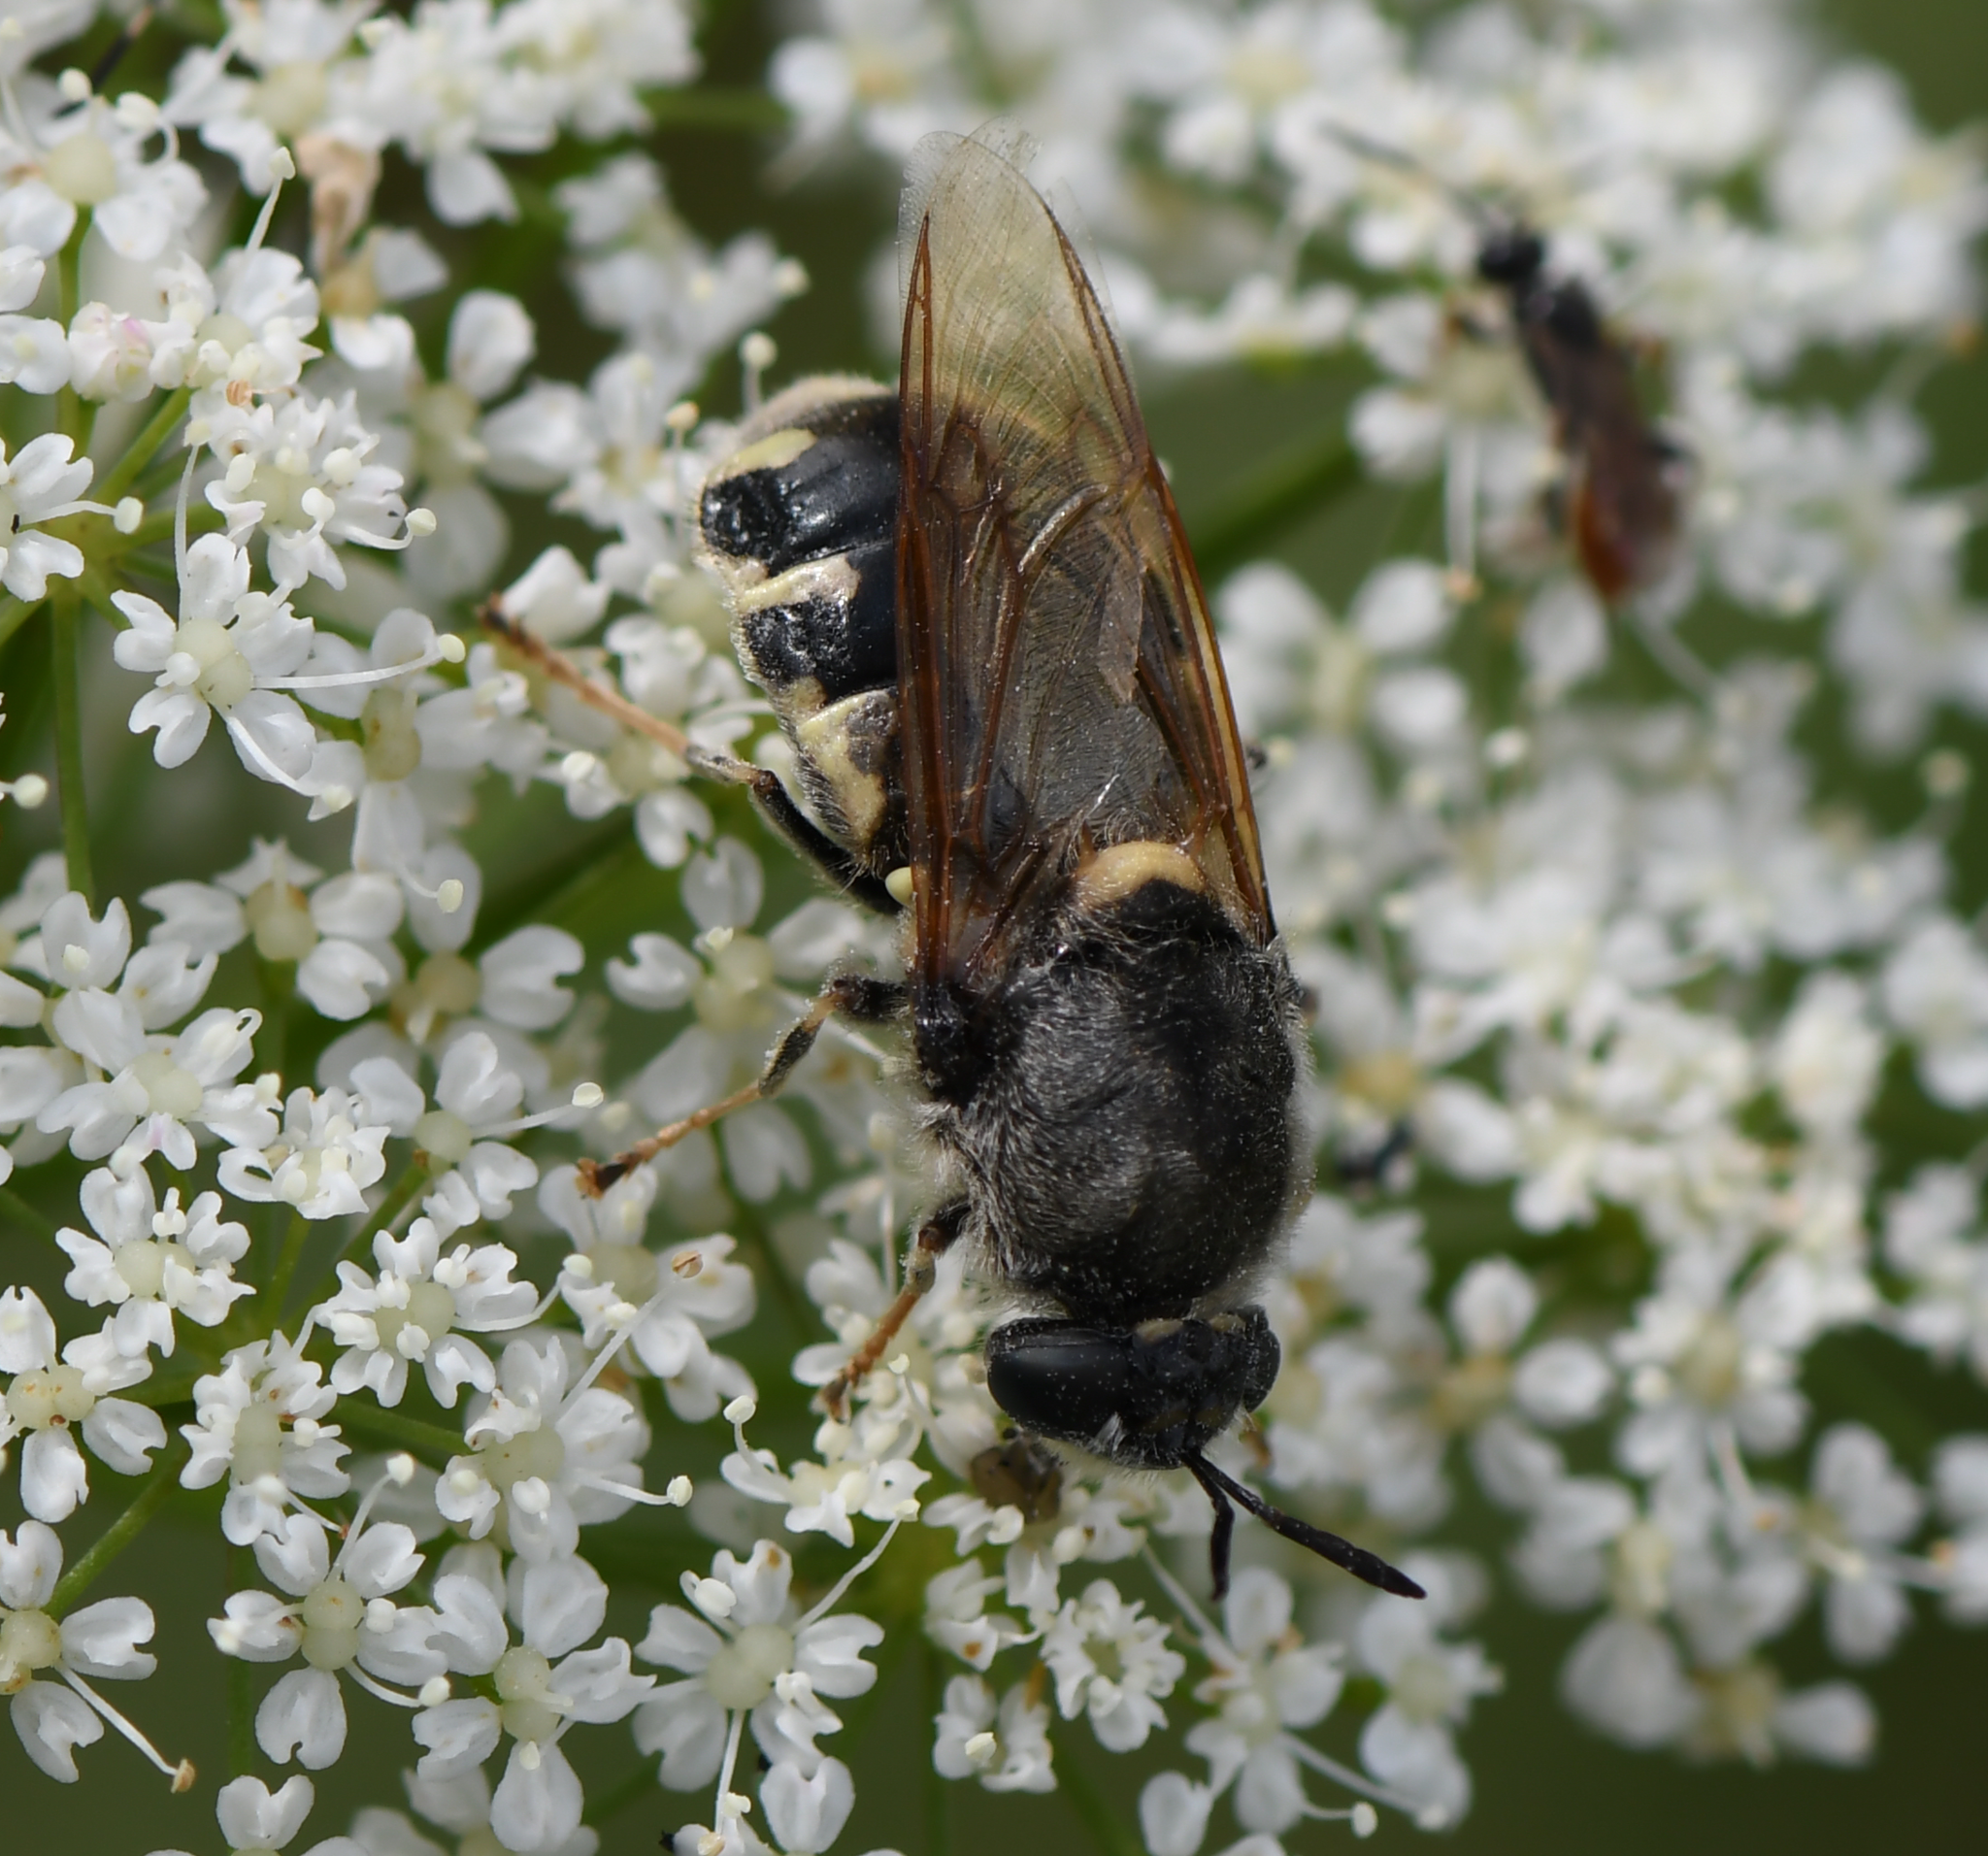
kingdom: Animalia
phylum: Arthropoda
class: Insecta
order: Diptera
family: Stratiomyidae
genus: Stratiomys
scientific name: Stratiomys singularior
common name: Flecked general
